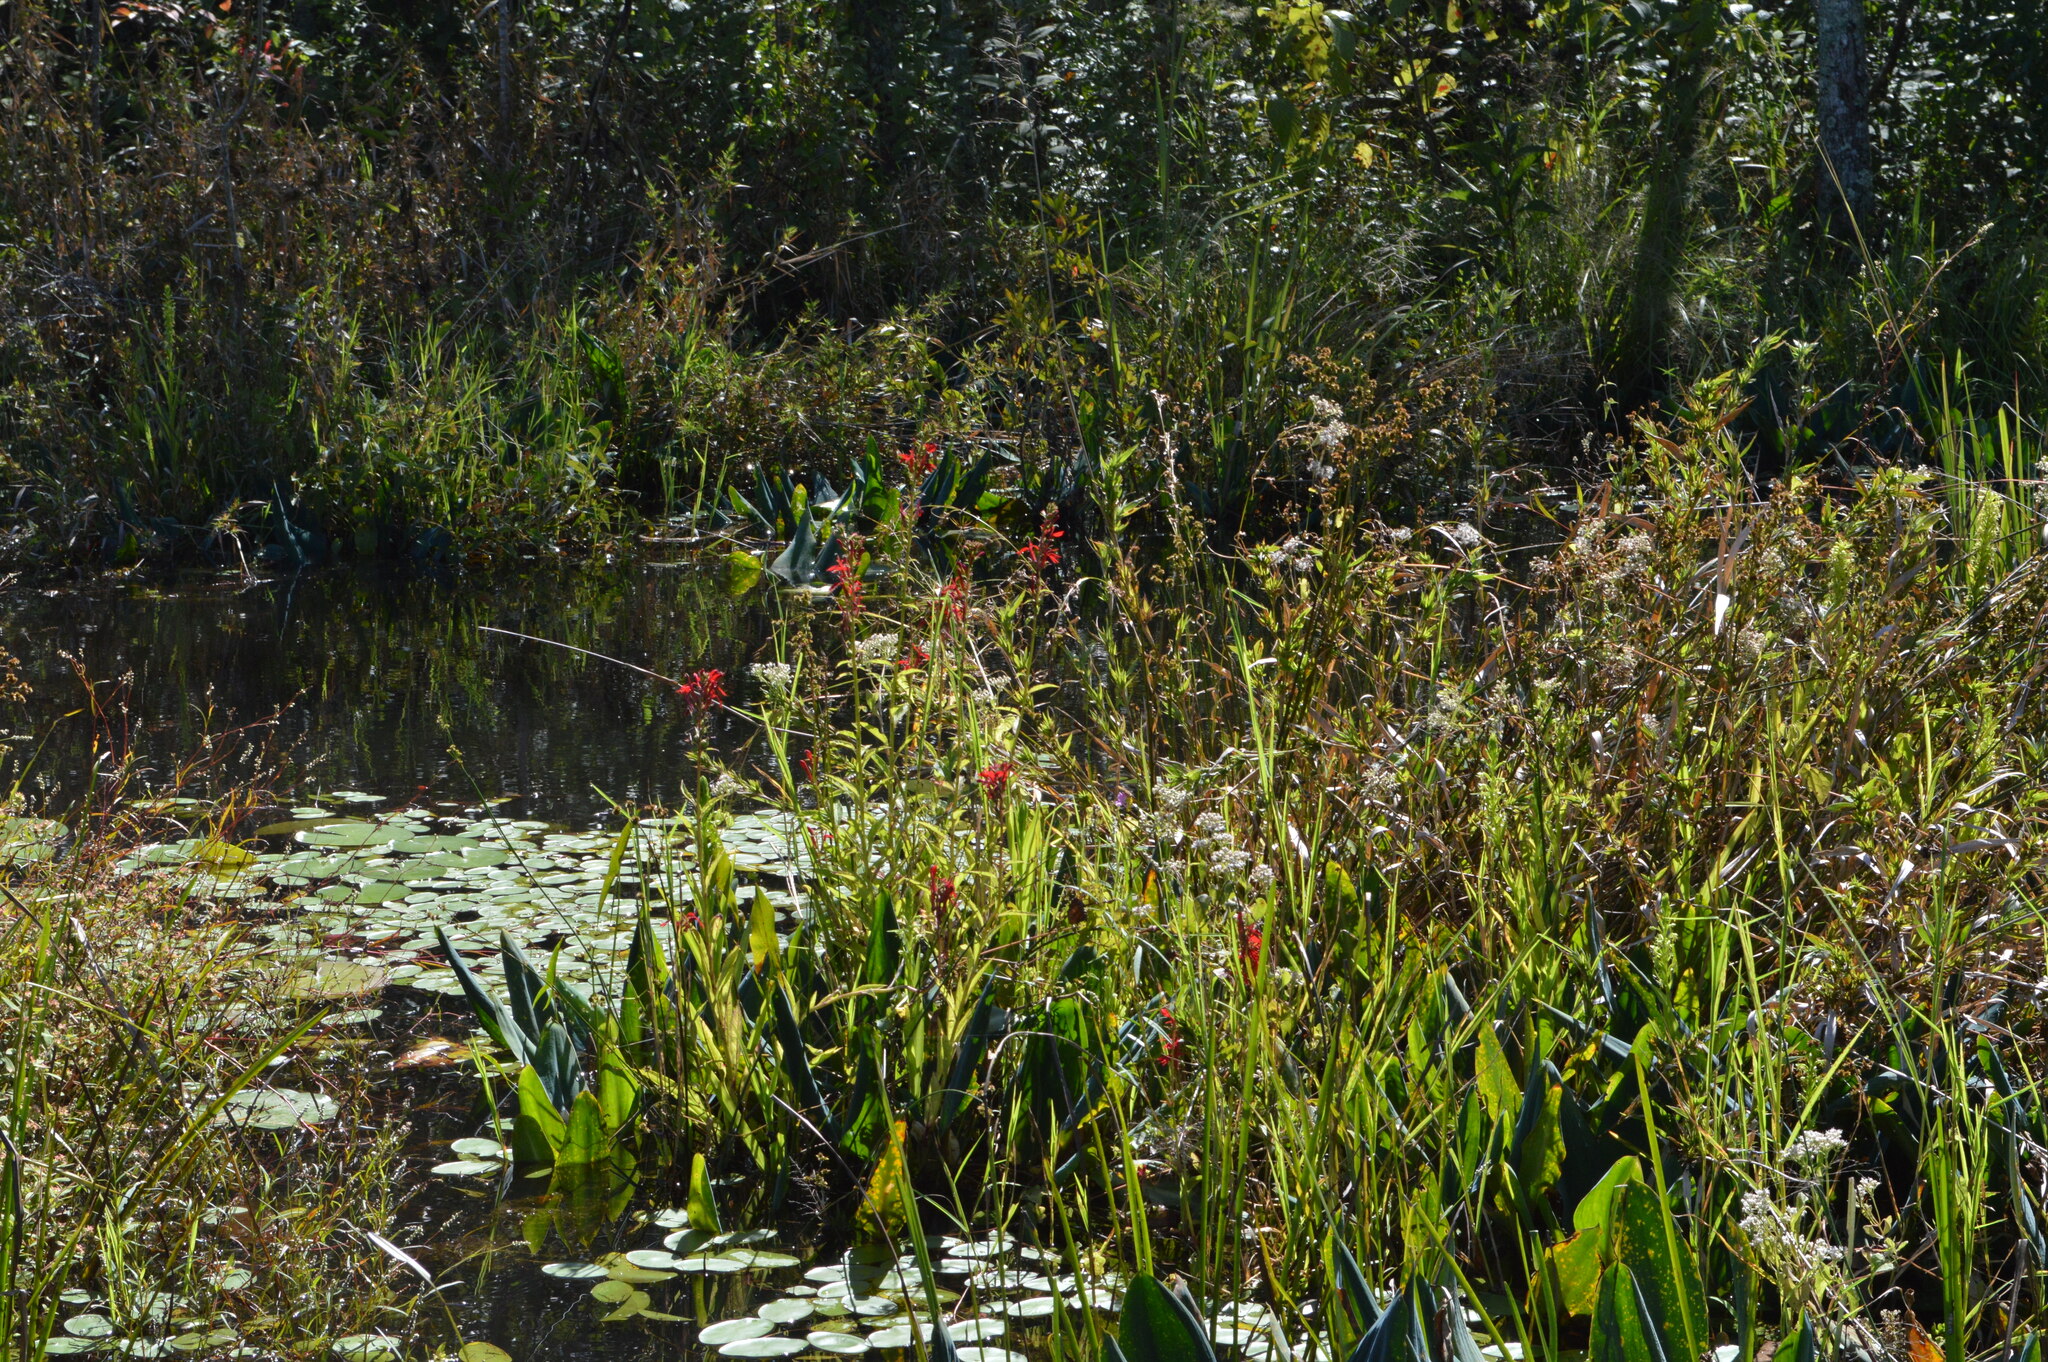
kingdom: Plantae
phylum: Tracheophyta
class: Liliopsida
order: Alismatales
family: Araceae
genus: Orontium
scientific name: Orontium aquaticum
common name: Golden-club
